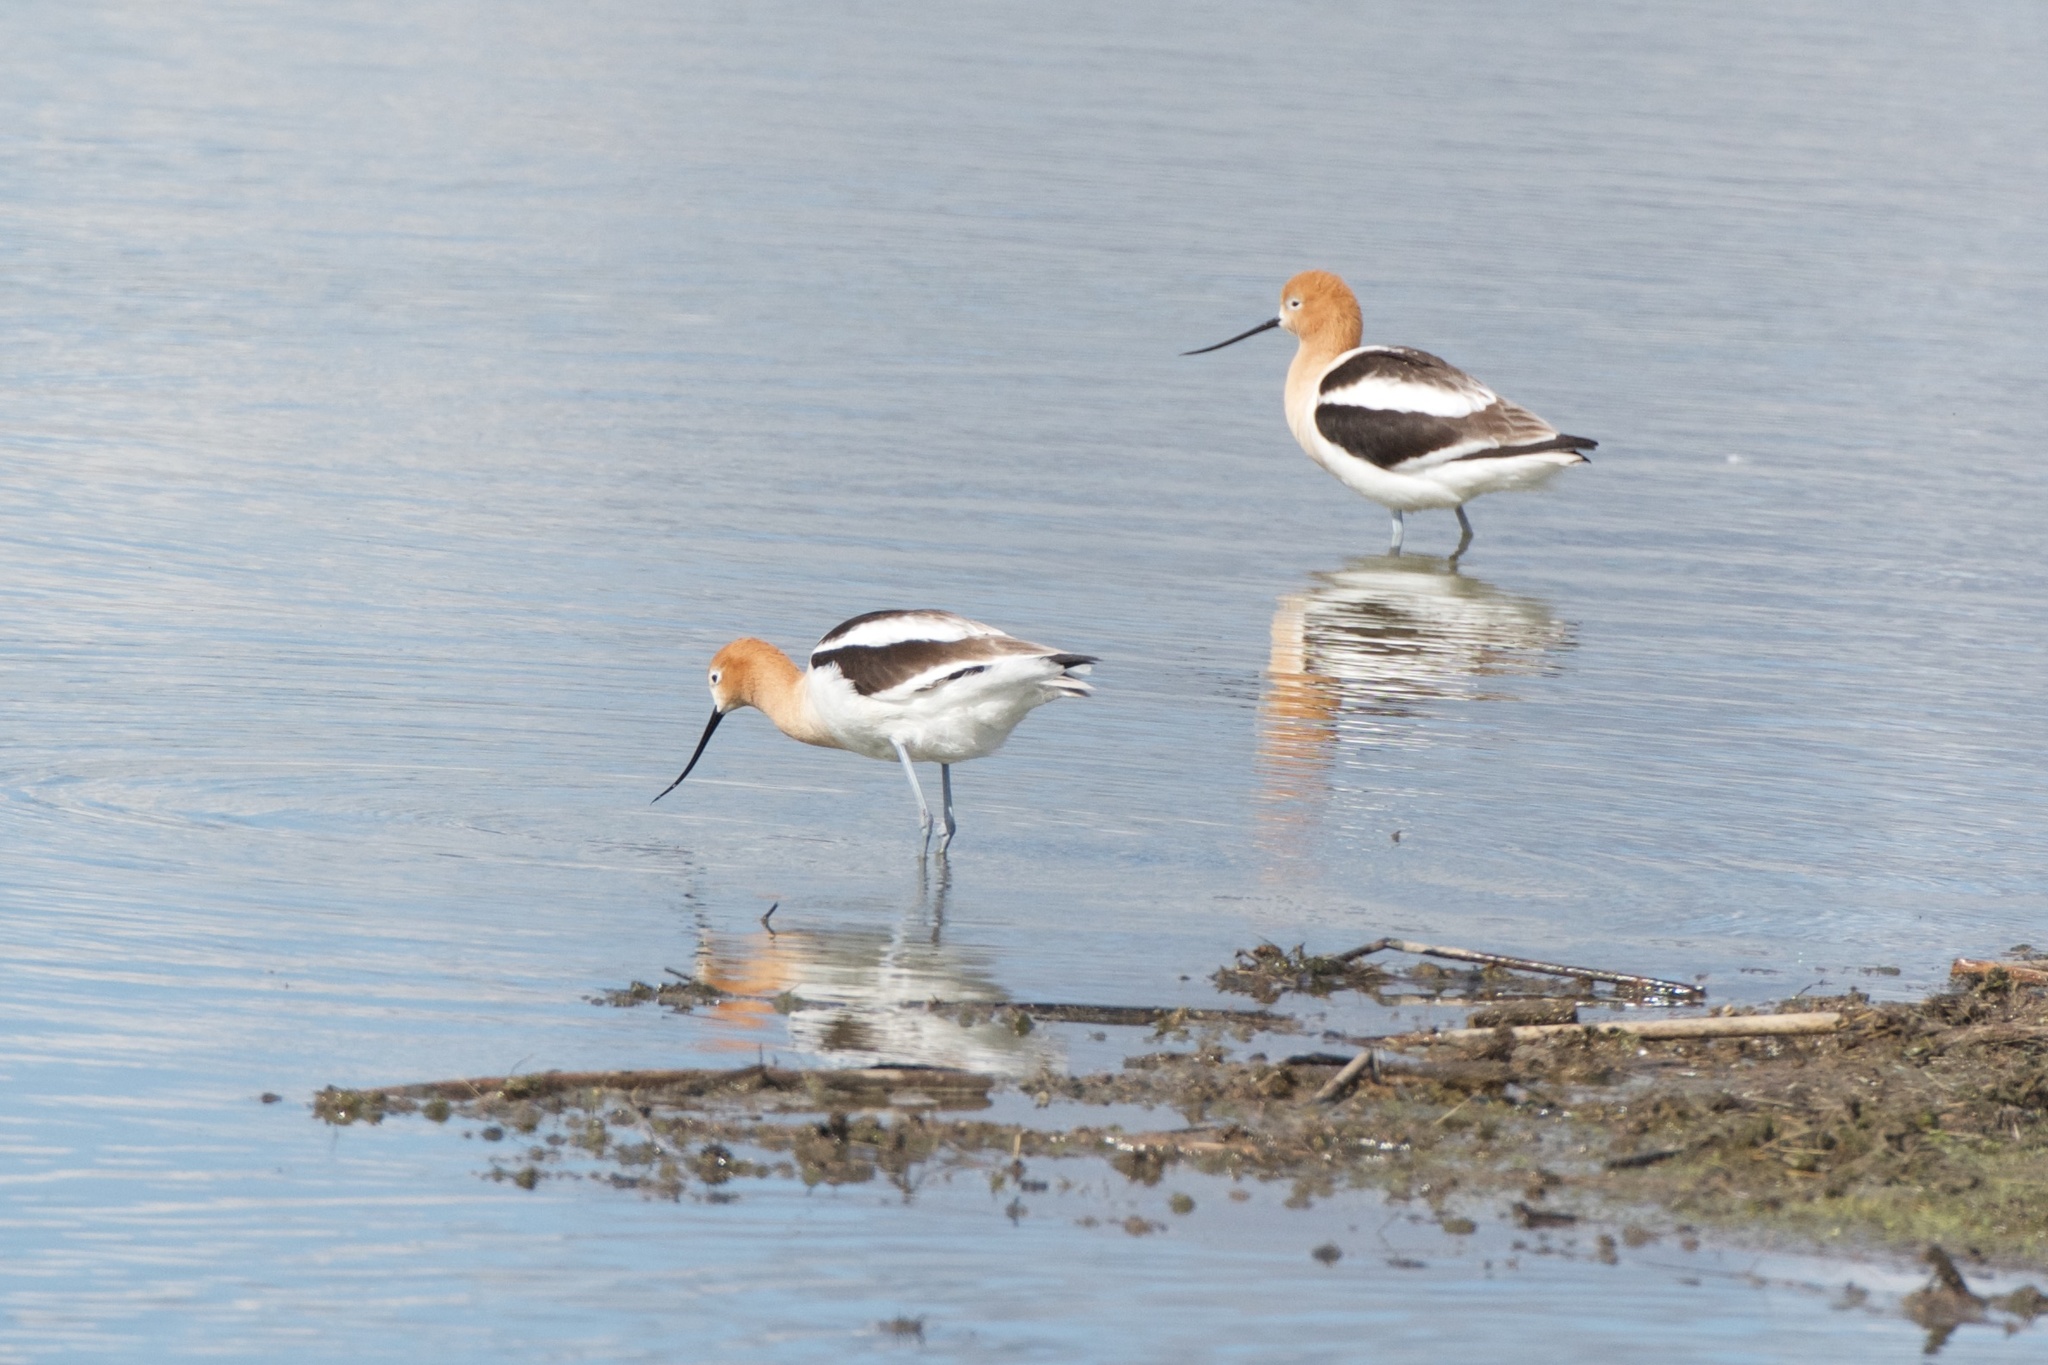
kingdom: Animalia
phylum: Chordata
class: Aves
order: Charadriiformes
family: Recurvirostridae
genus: Recurvirostra
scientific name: Recurvirostra americana
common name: American avocet
